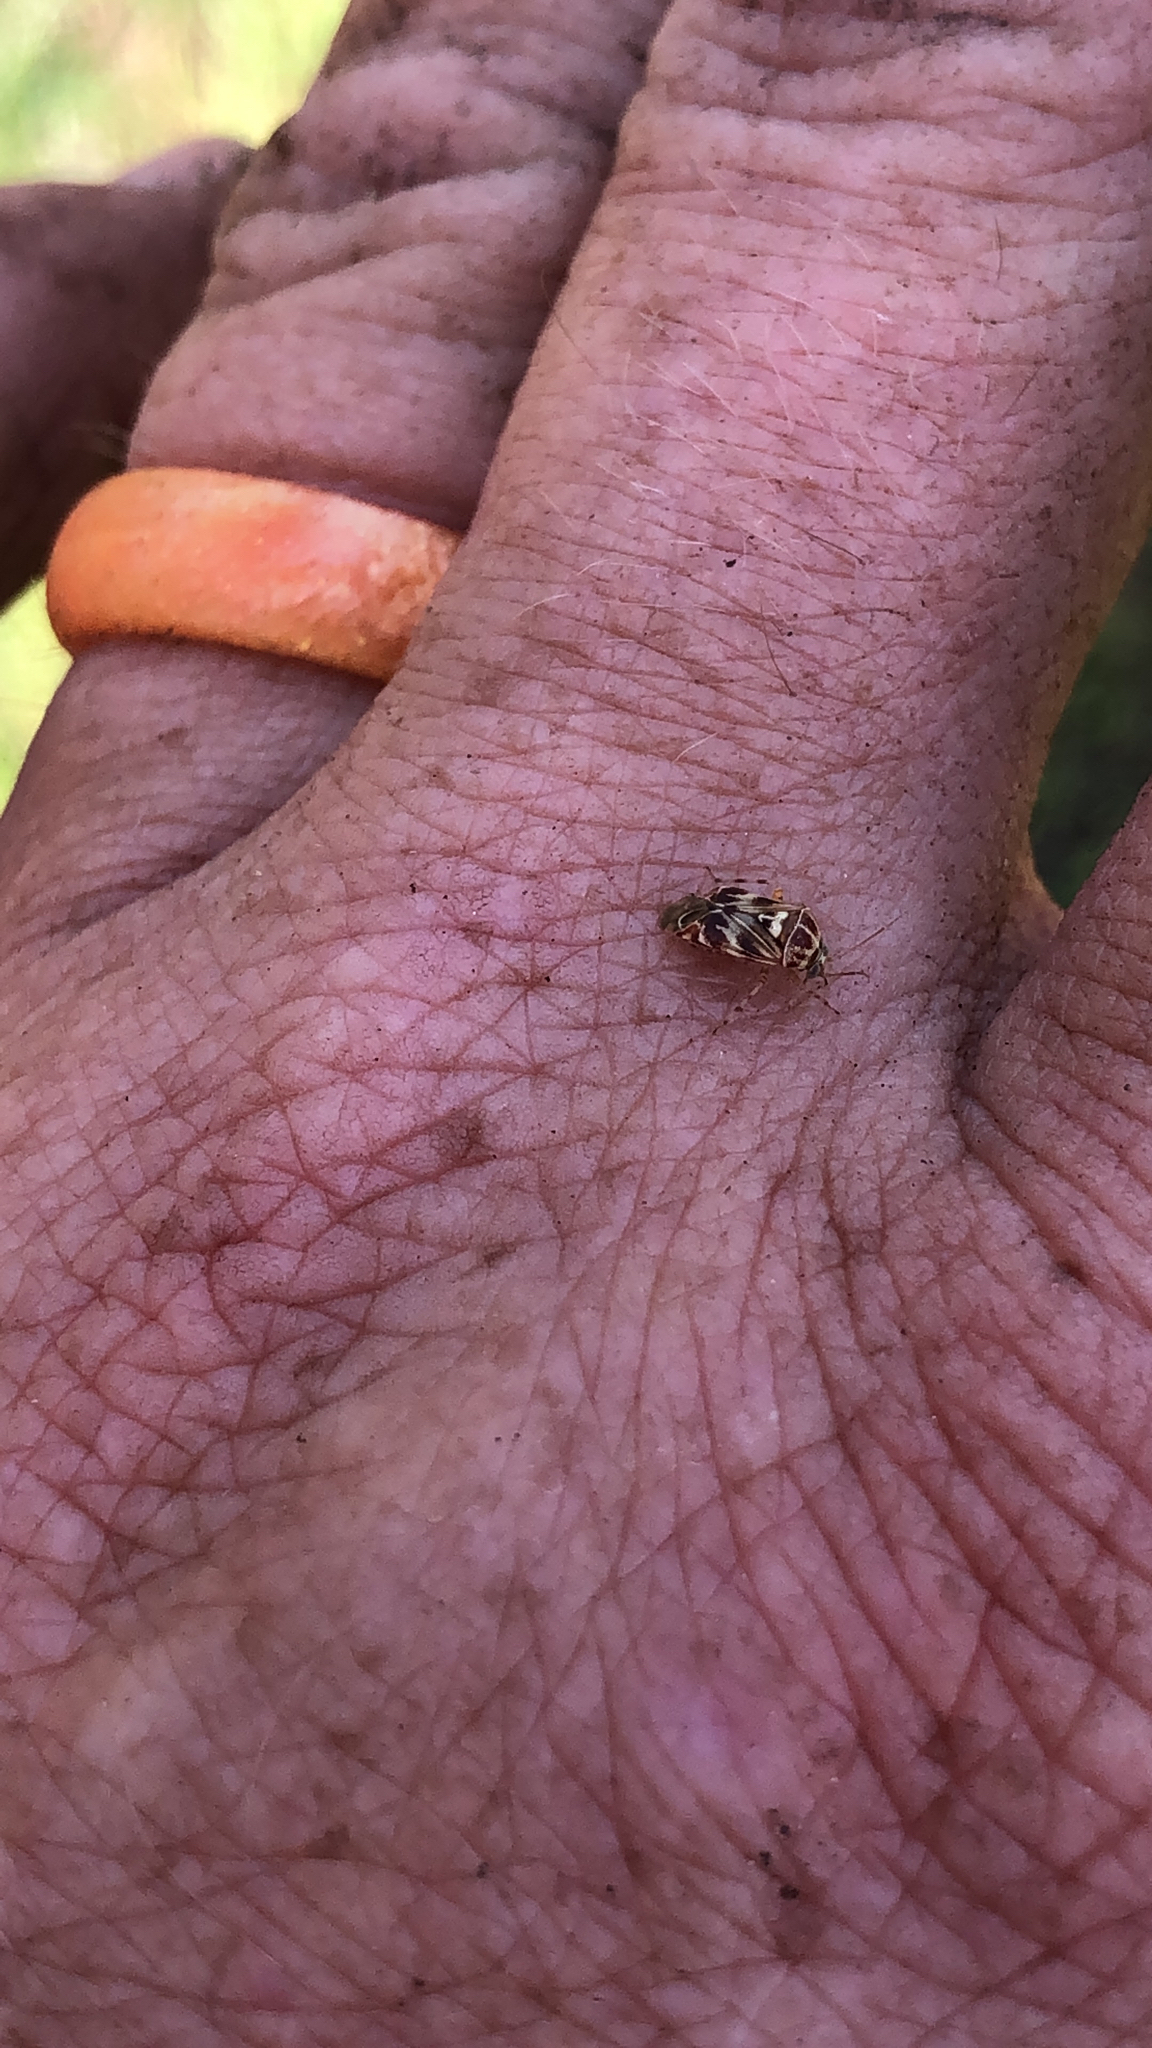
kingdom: Animalia
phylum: Arthropoda
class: Insecta
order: Hemiptera
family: Miridae
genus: Tropidosteptes
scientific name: Tropidosteptes quercicola
